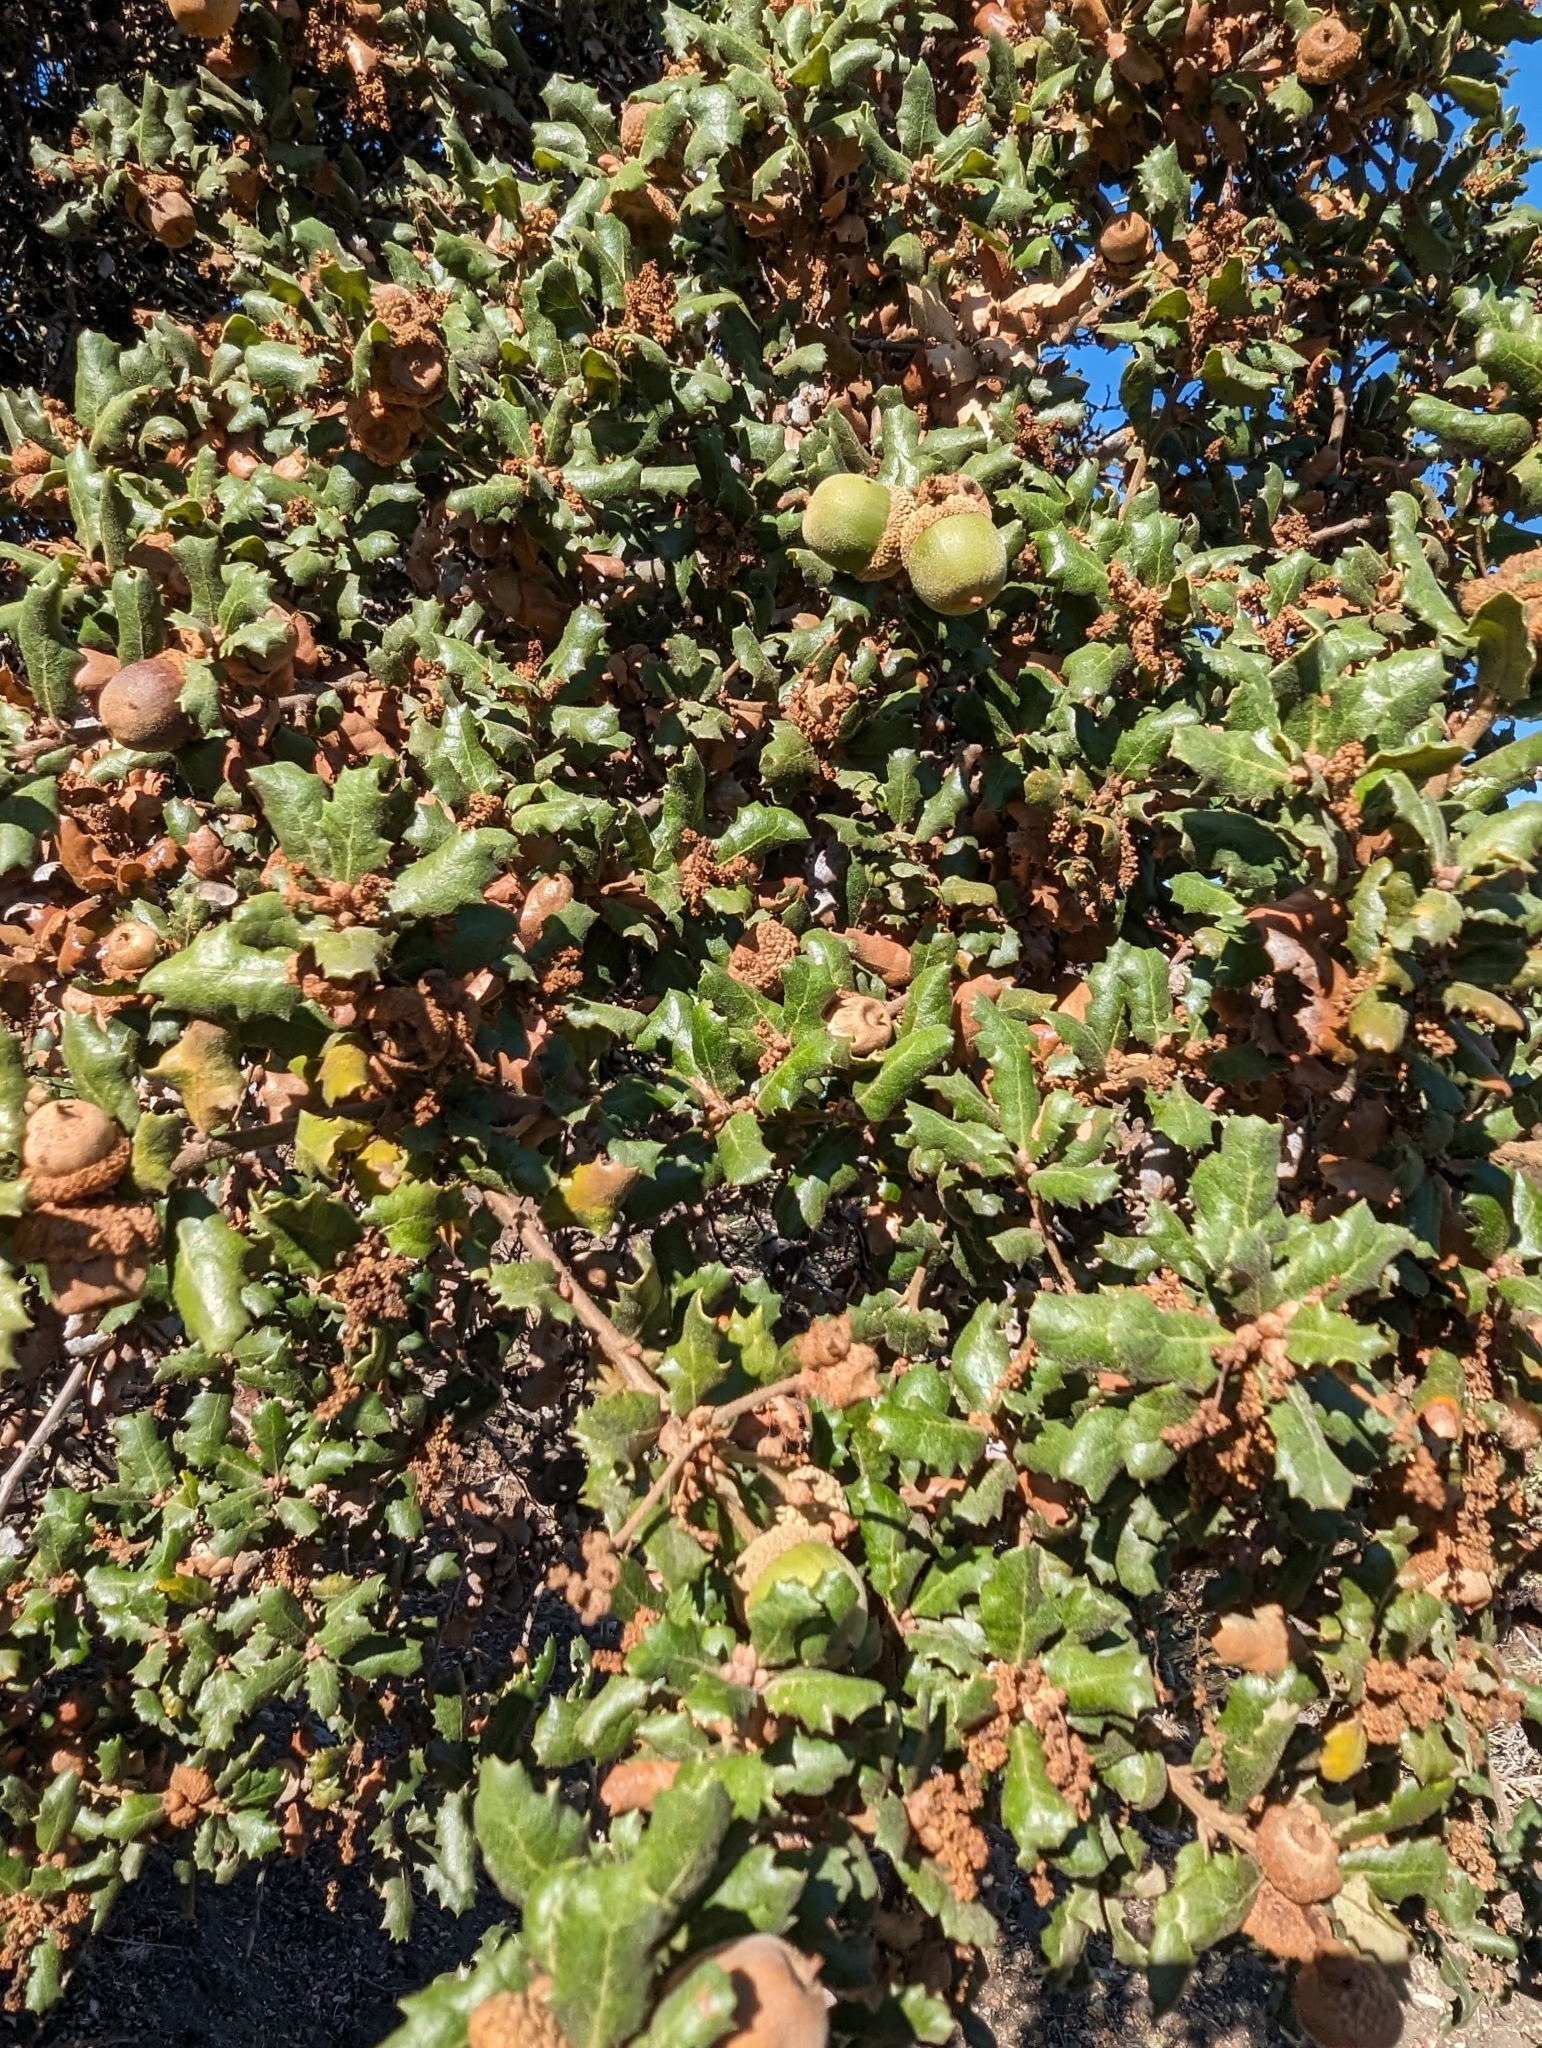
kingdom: Plantae
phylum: Tracheophyta
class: Magnoliopsida
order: Fagales
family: Fagaceae
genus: Quercus
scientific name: Quercus durata
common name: Leather oak
